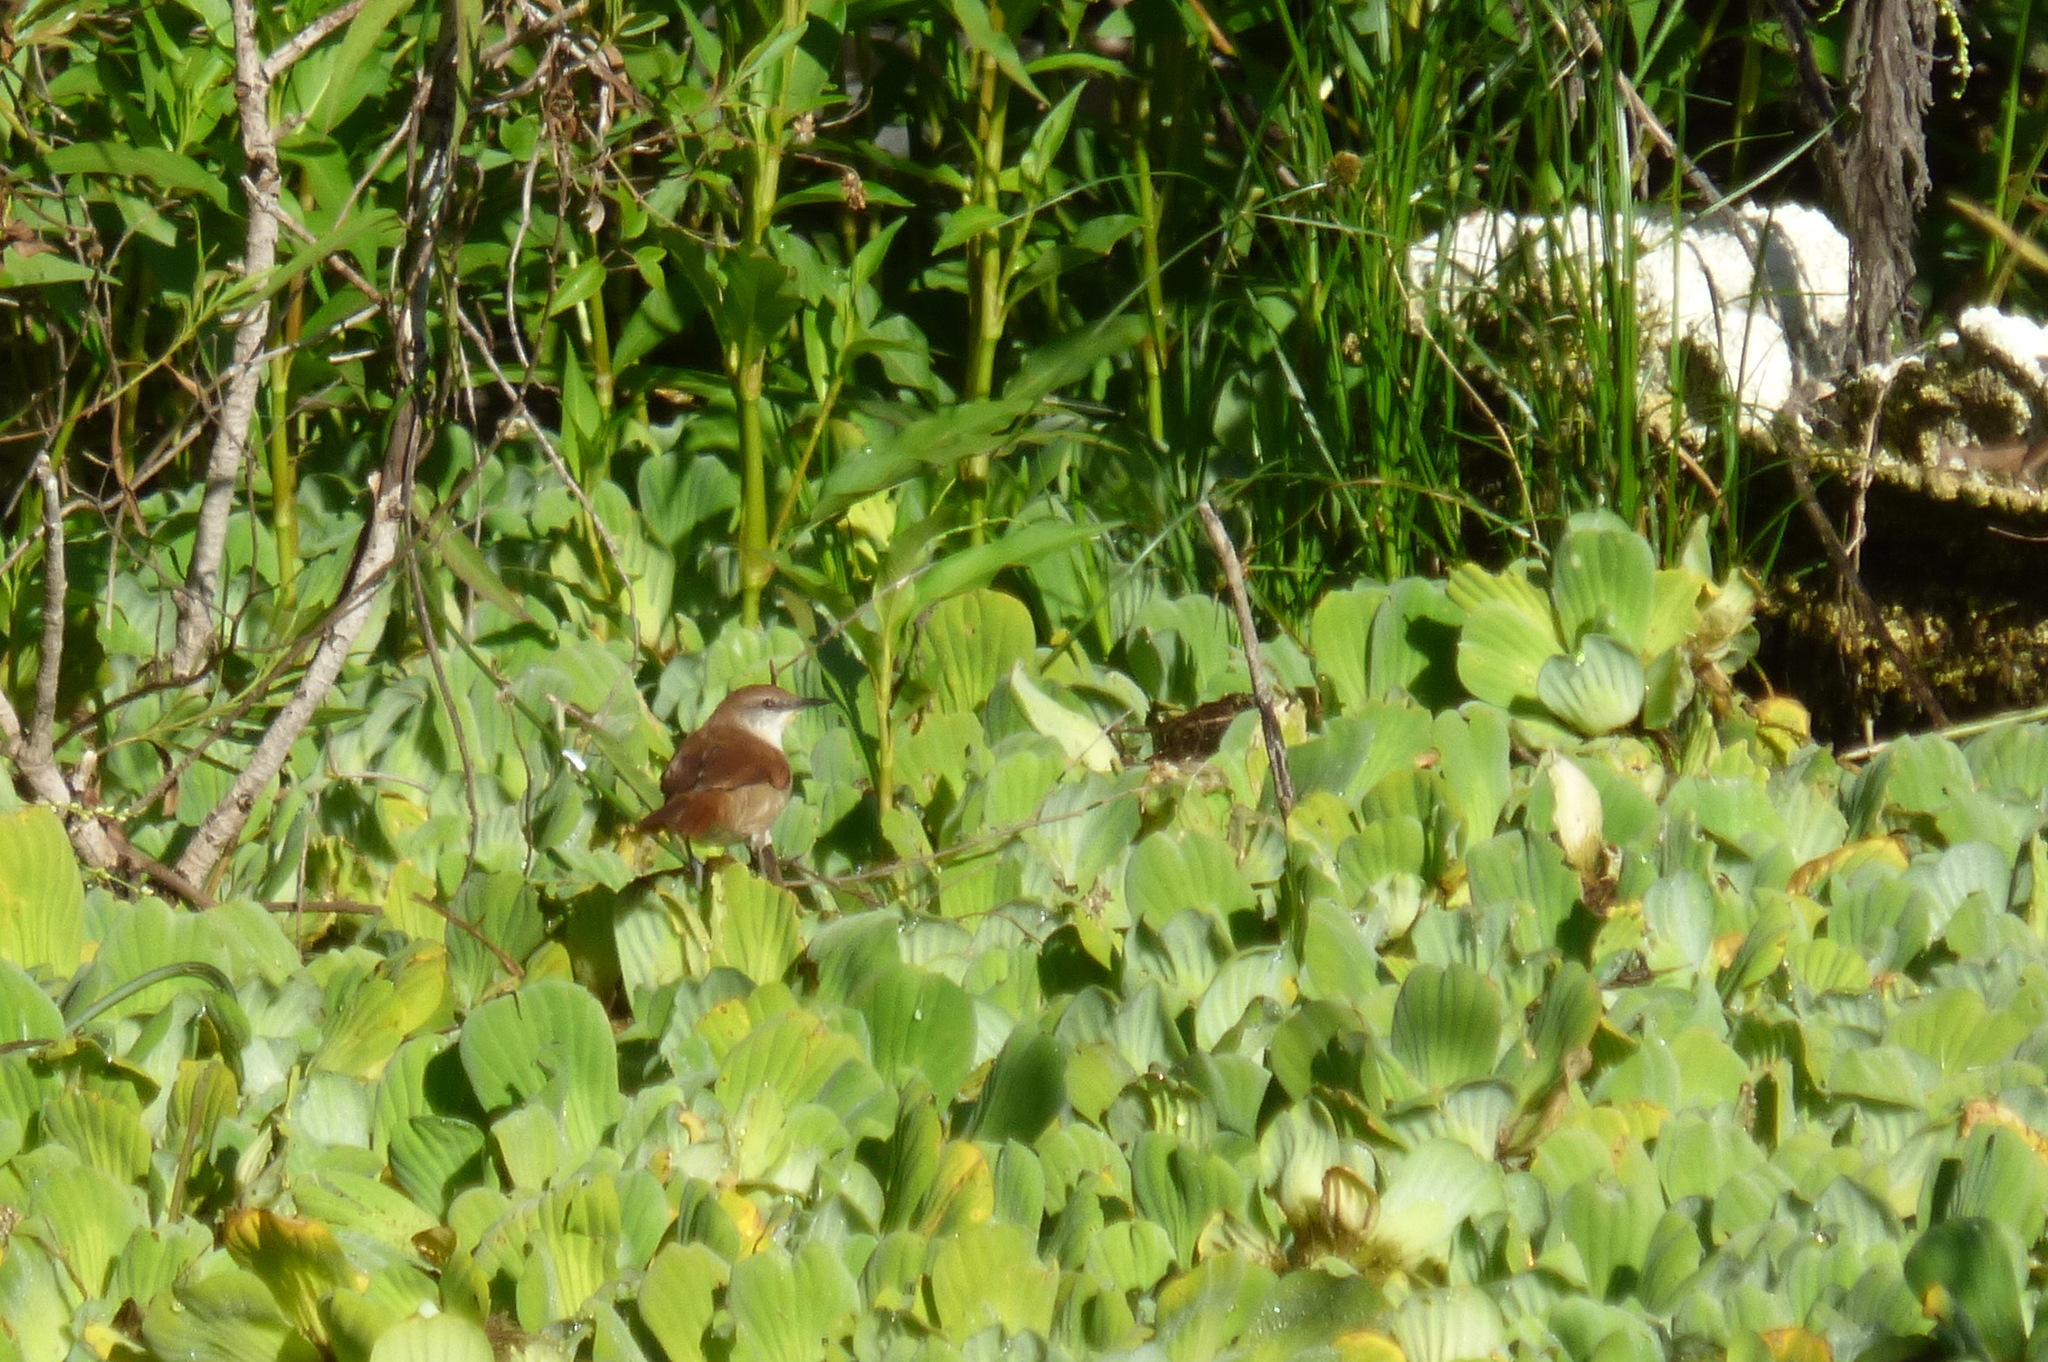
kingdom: Animalia
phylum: Chordata
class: Aves
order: Passeriformes
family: Furnariidae
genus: Certhiaxis
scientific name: Certhiaxis cinnamomeus
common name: Yellow-chinned spinetail
